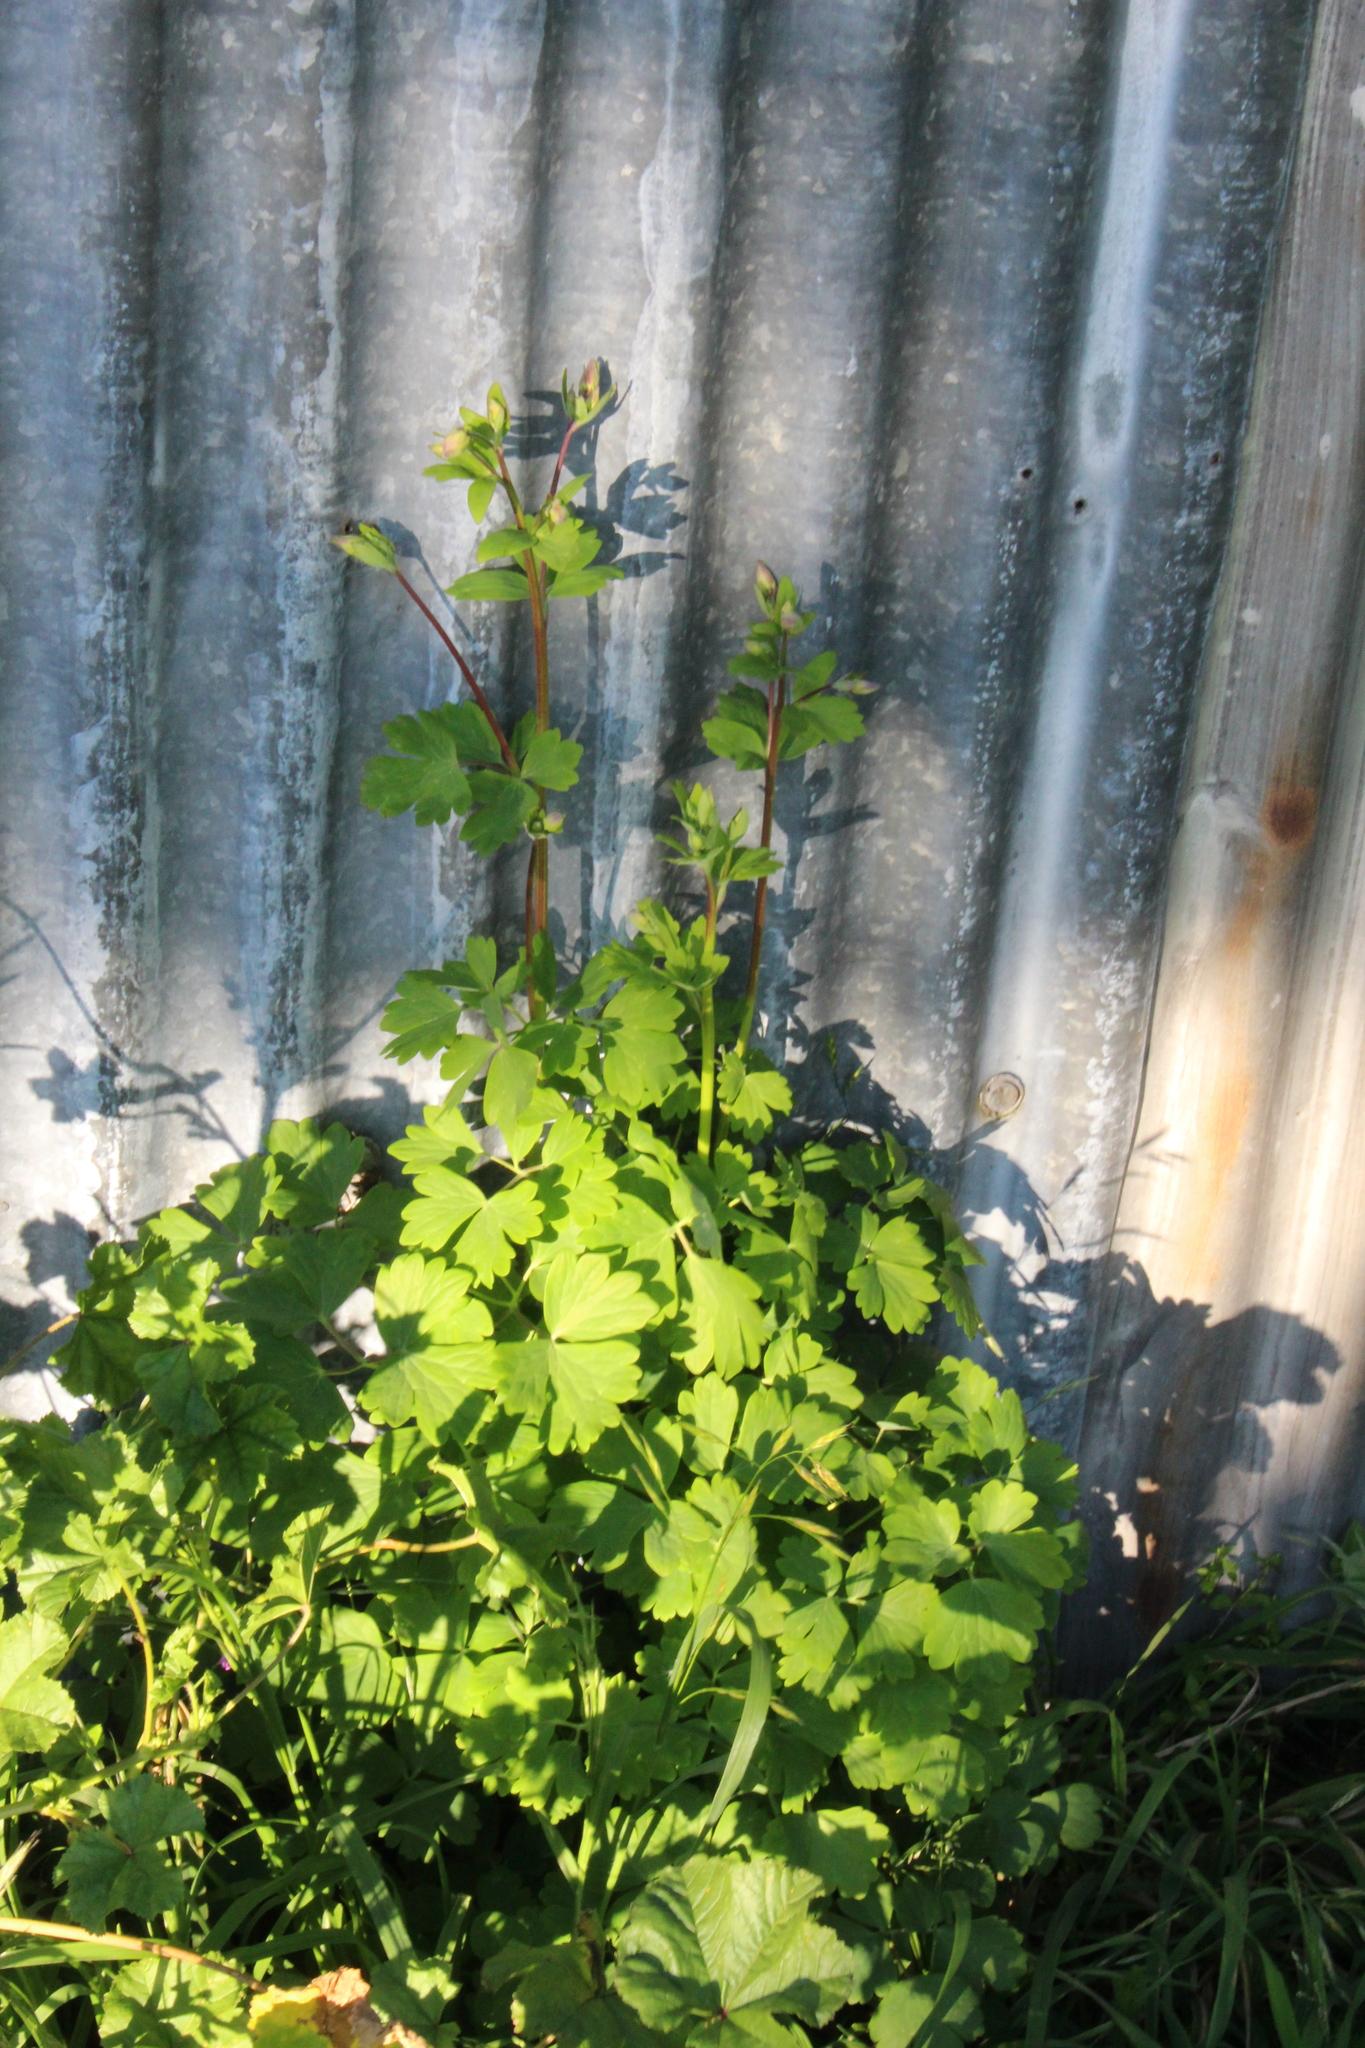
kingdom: Plantae
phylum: Tracheophyta
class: Magnoliopsida
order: Ranunculales
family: Ranunculaceae
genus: Aquilegia
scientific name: Aquilegia vulgaris
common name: Columbine
